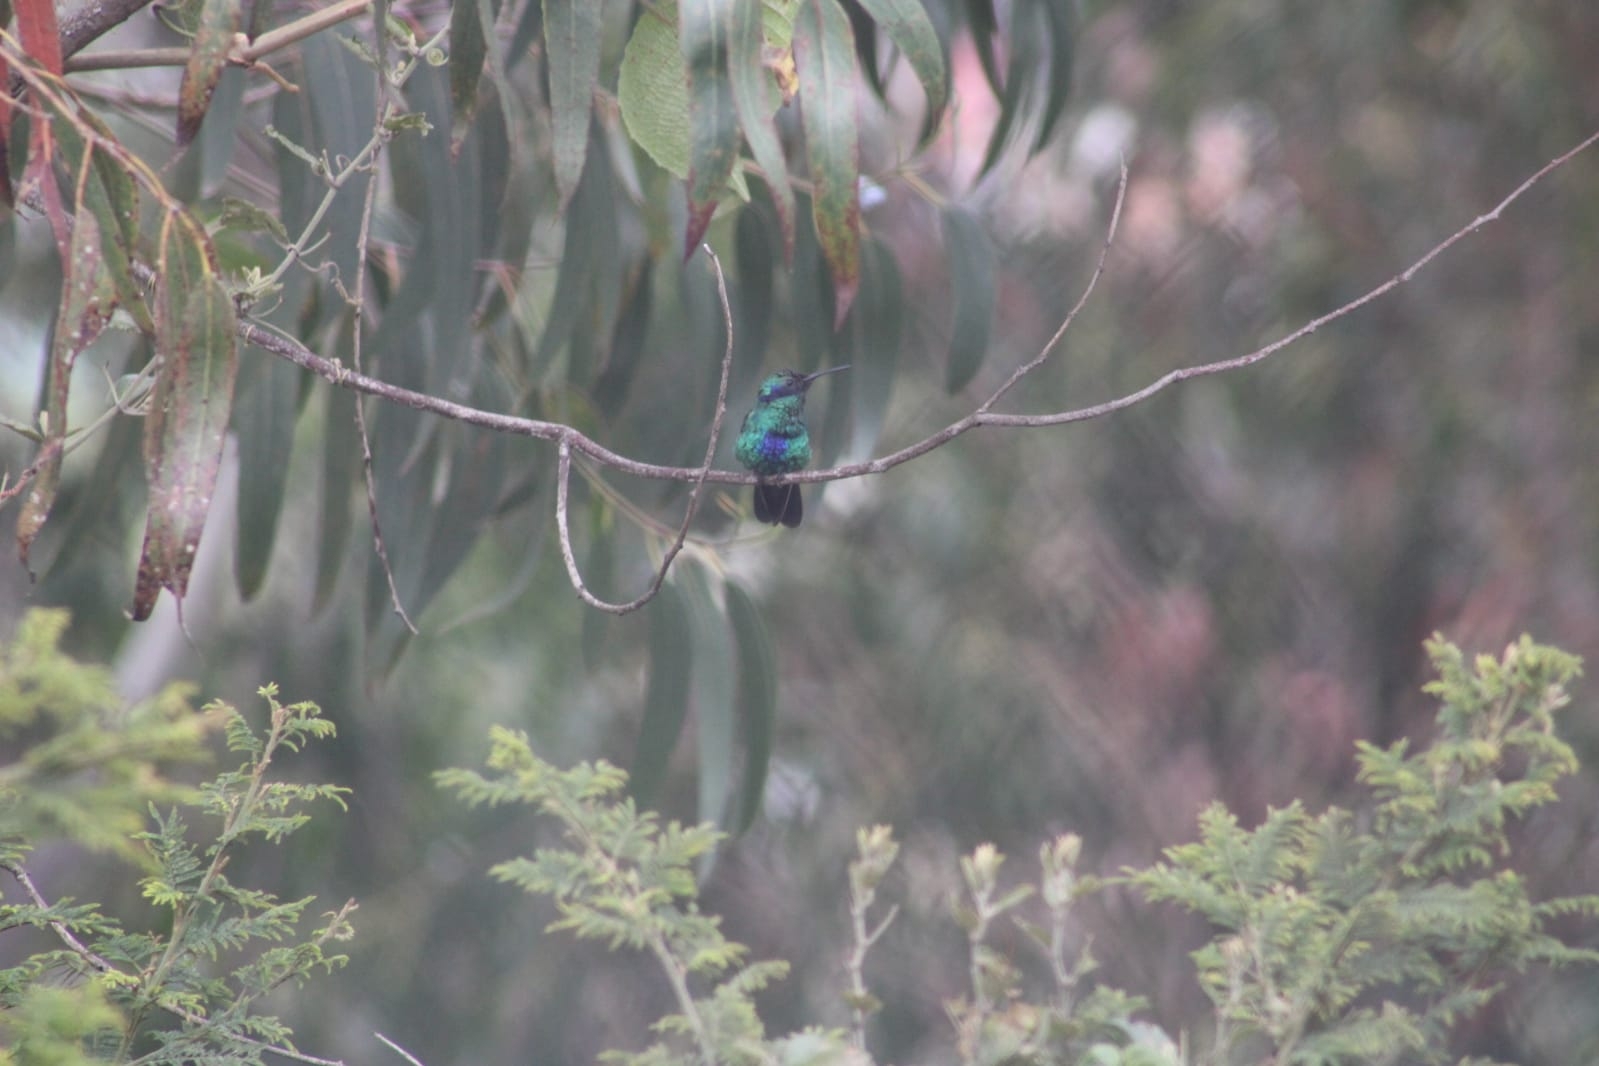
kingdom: Animalia
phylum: Chordata
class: Aves
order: Apodiformes
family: Trochilidae
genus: Colibri
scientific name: Colibri coruscans
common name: Sparkling violetear
